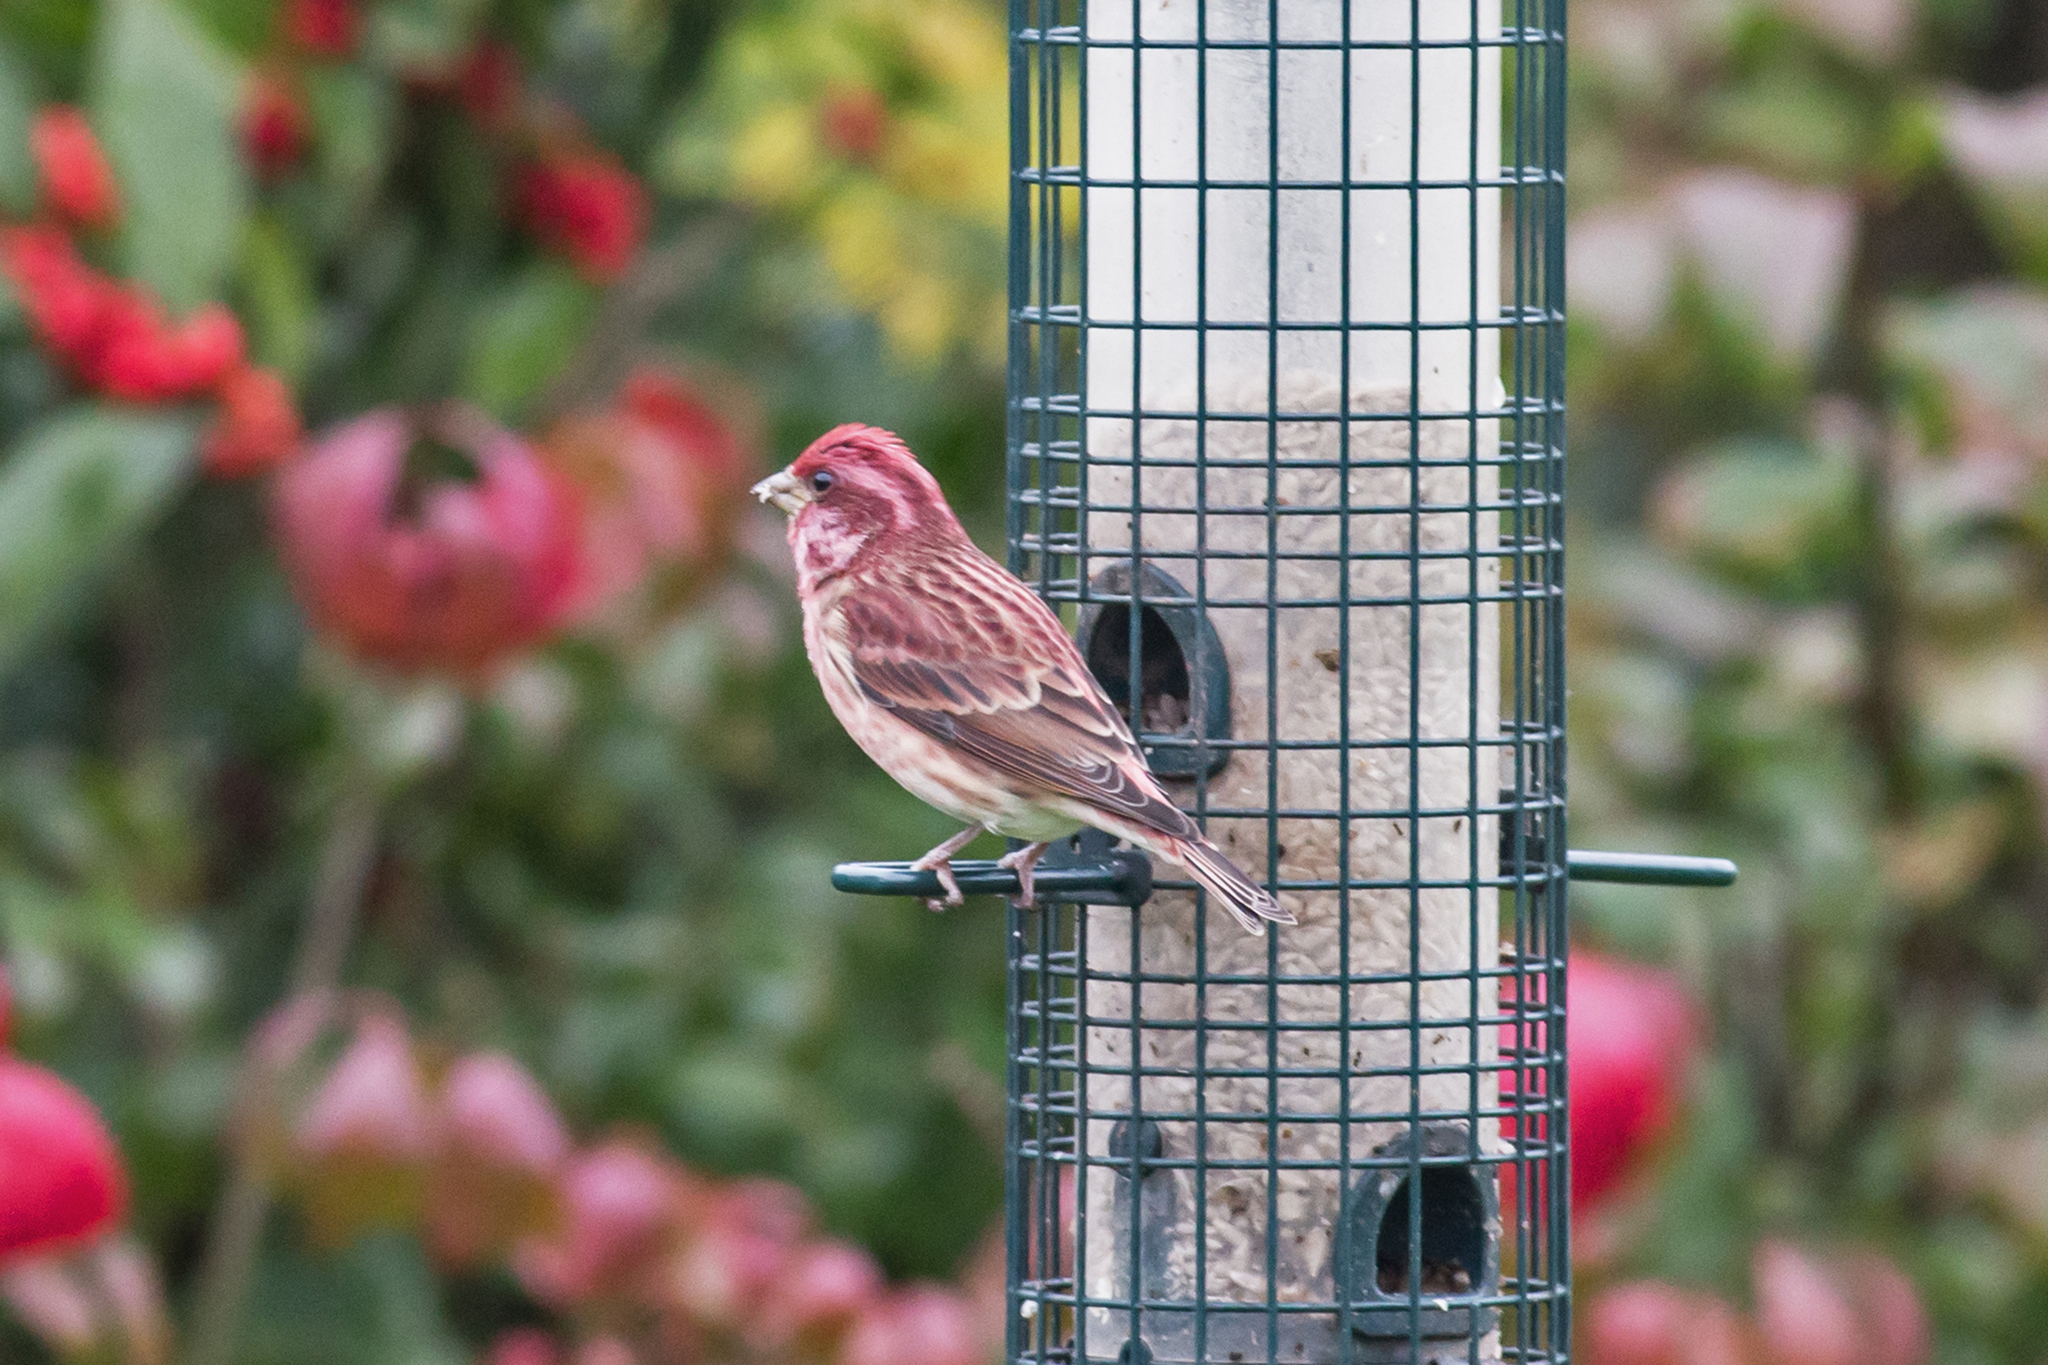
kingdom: Animalia
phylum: Chordata
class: Aves
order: Passeriformes
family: Fringillidae
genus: Haemorhous
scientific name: Haemorhous purpureus
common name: Purple finch
